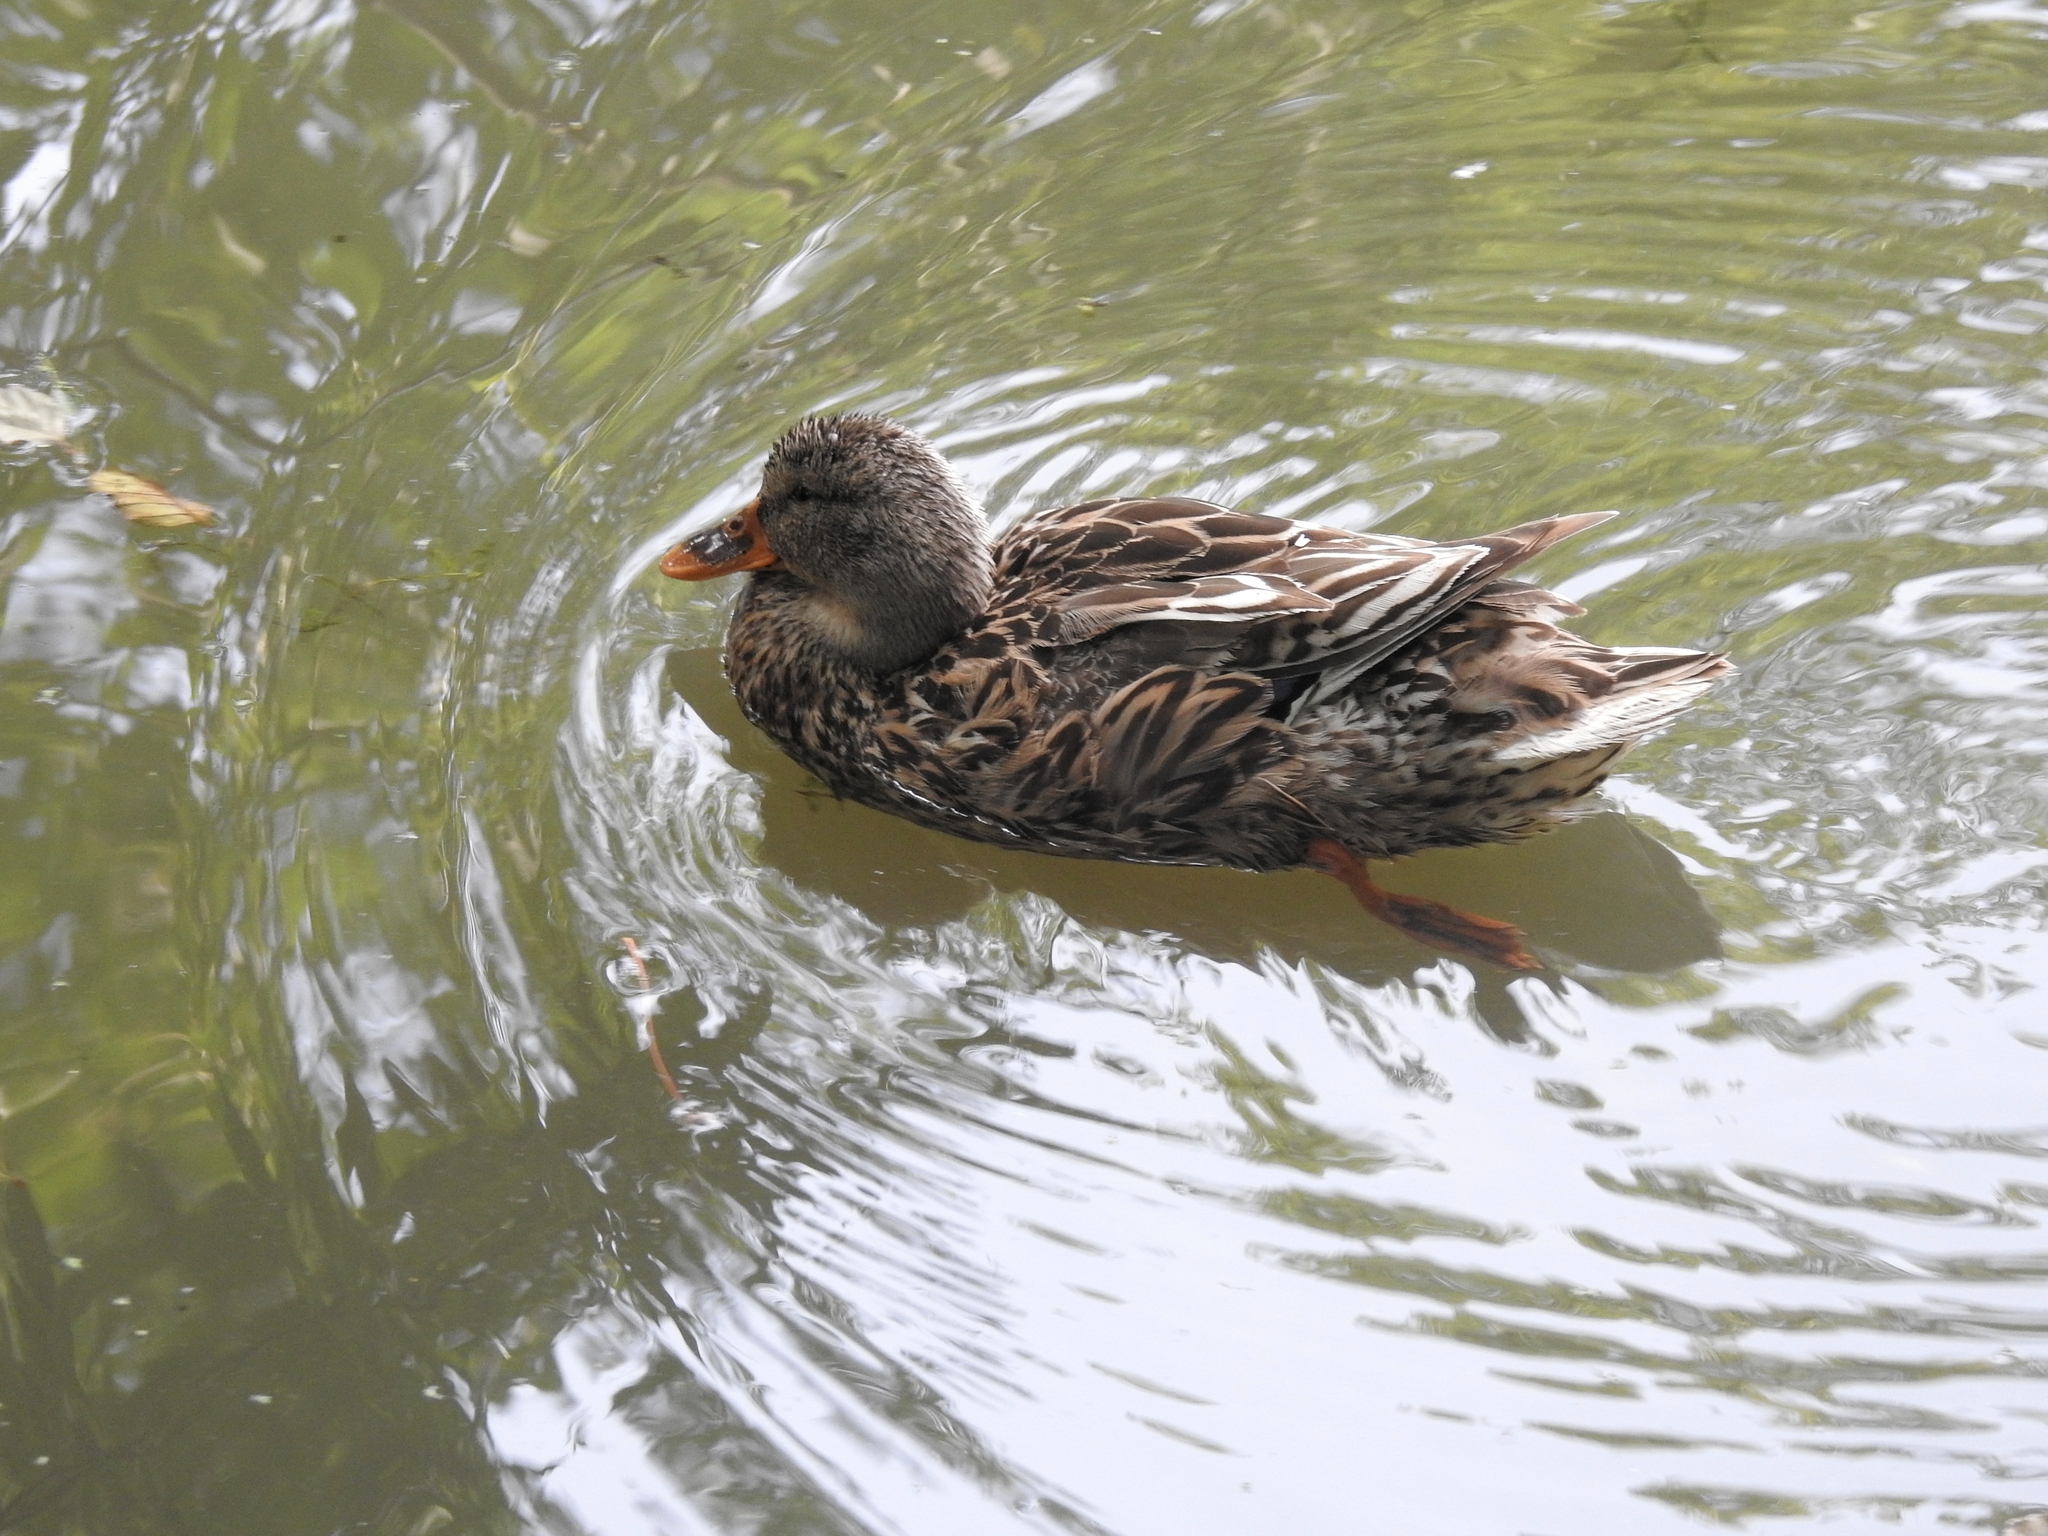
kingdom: Animalia
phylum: Chordata
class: Aves
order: Anseriformes
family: Anatidae
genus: Anas
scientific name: Anas platyrhynchos
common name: Mallard
